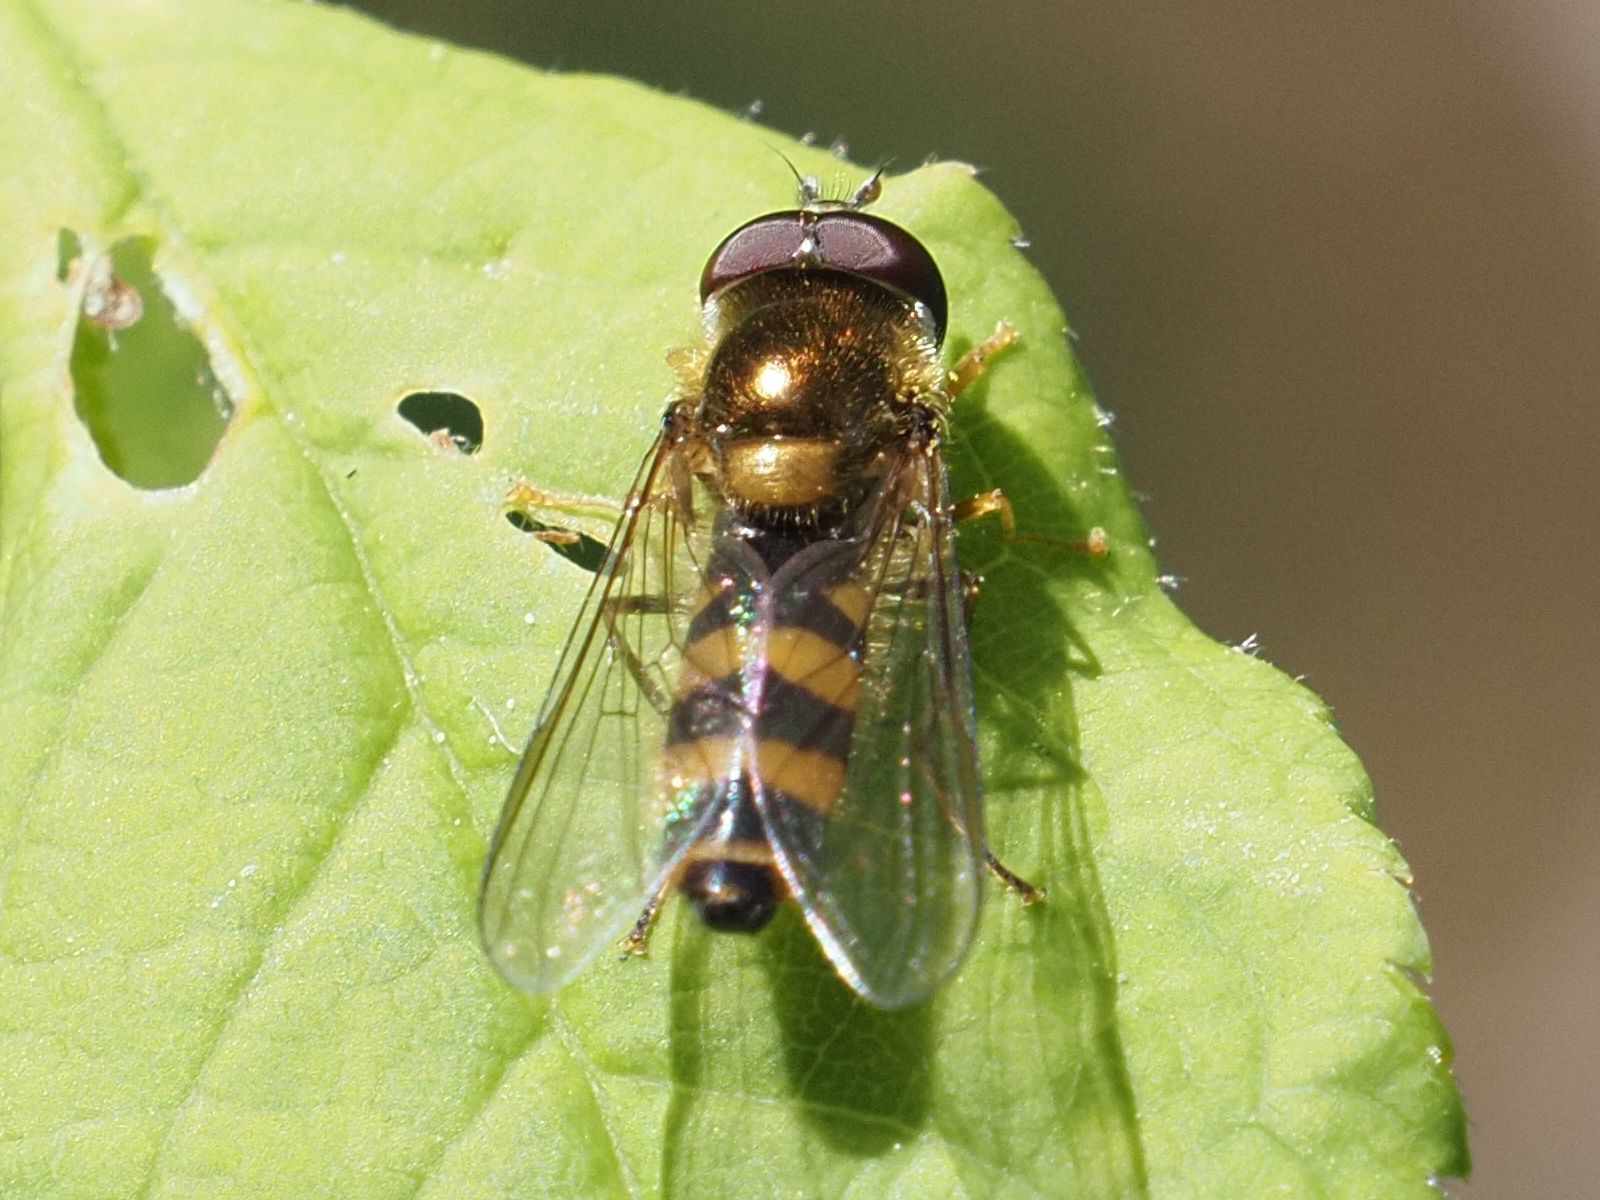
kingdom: Animalia
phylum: Arthropoda
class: Insecta
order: Diptera
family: Syrphidae
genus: Fagisyrphus
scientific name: Fagisyrphus cincta
